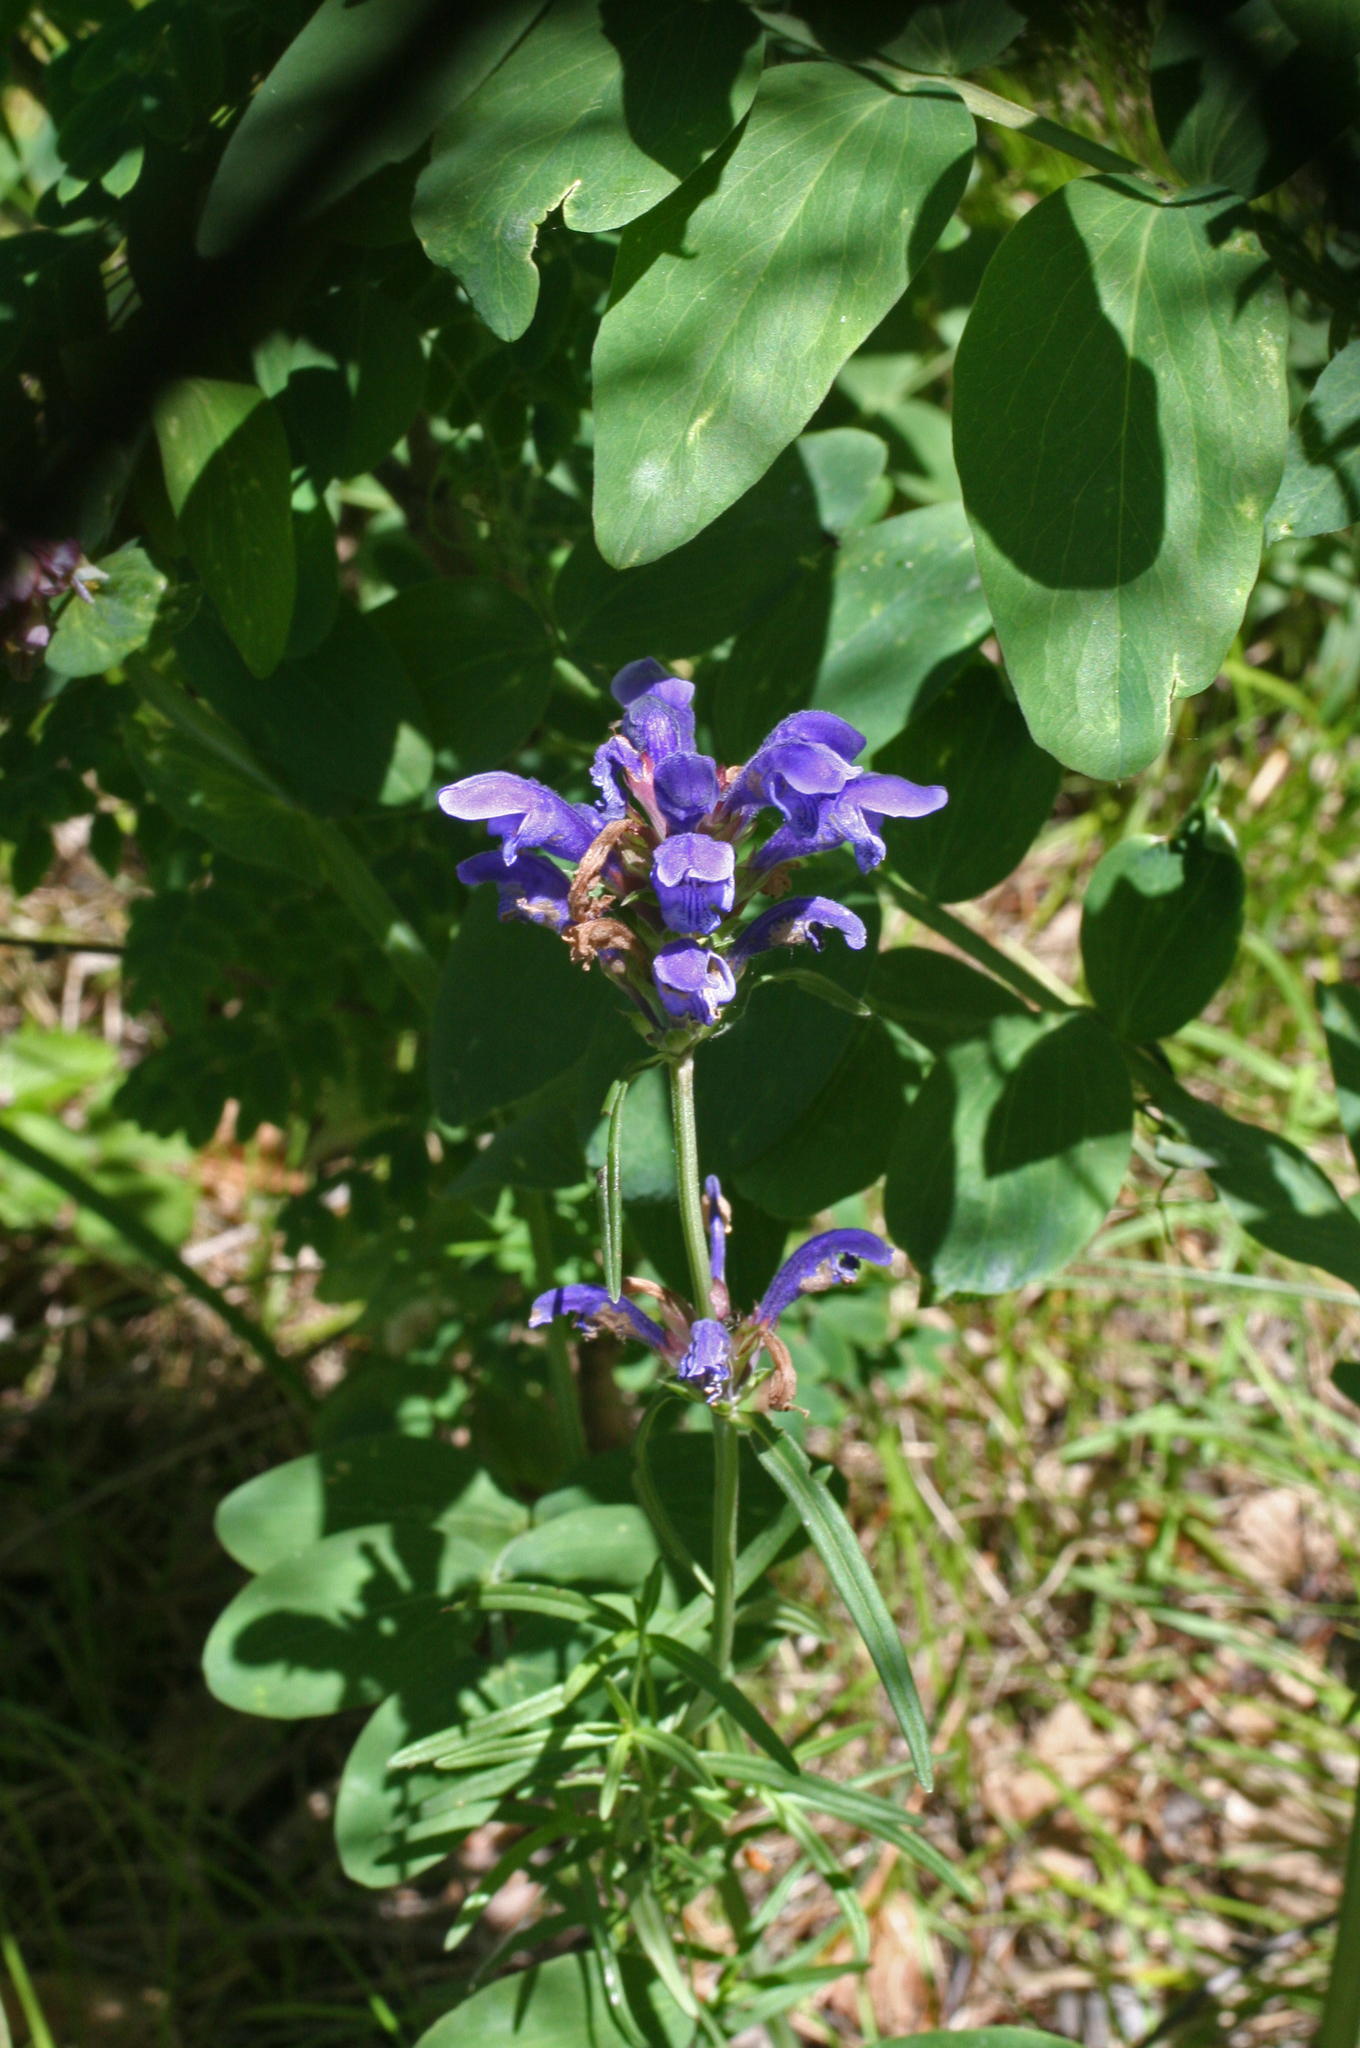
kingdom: Plantae
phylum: Tracheophyta
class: Magnoliopsida
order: Lamiales
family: Lamiaceae
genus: Dracocephalum
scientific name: Dracocephalum ruyschiana
